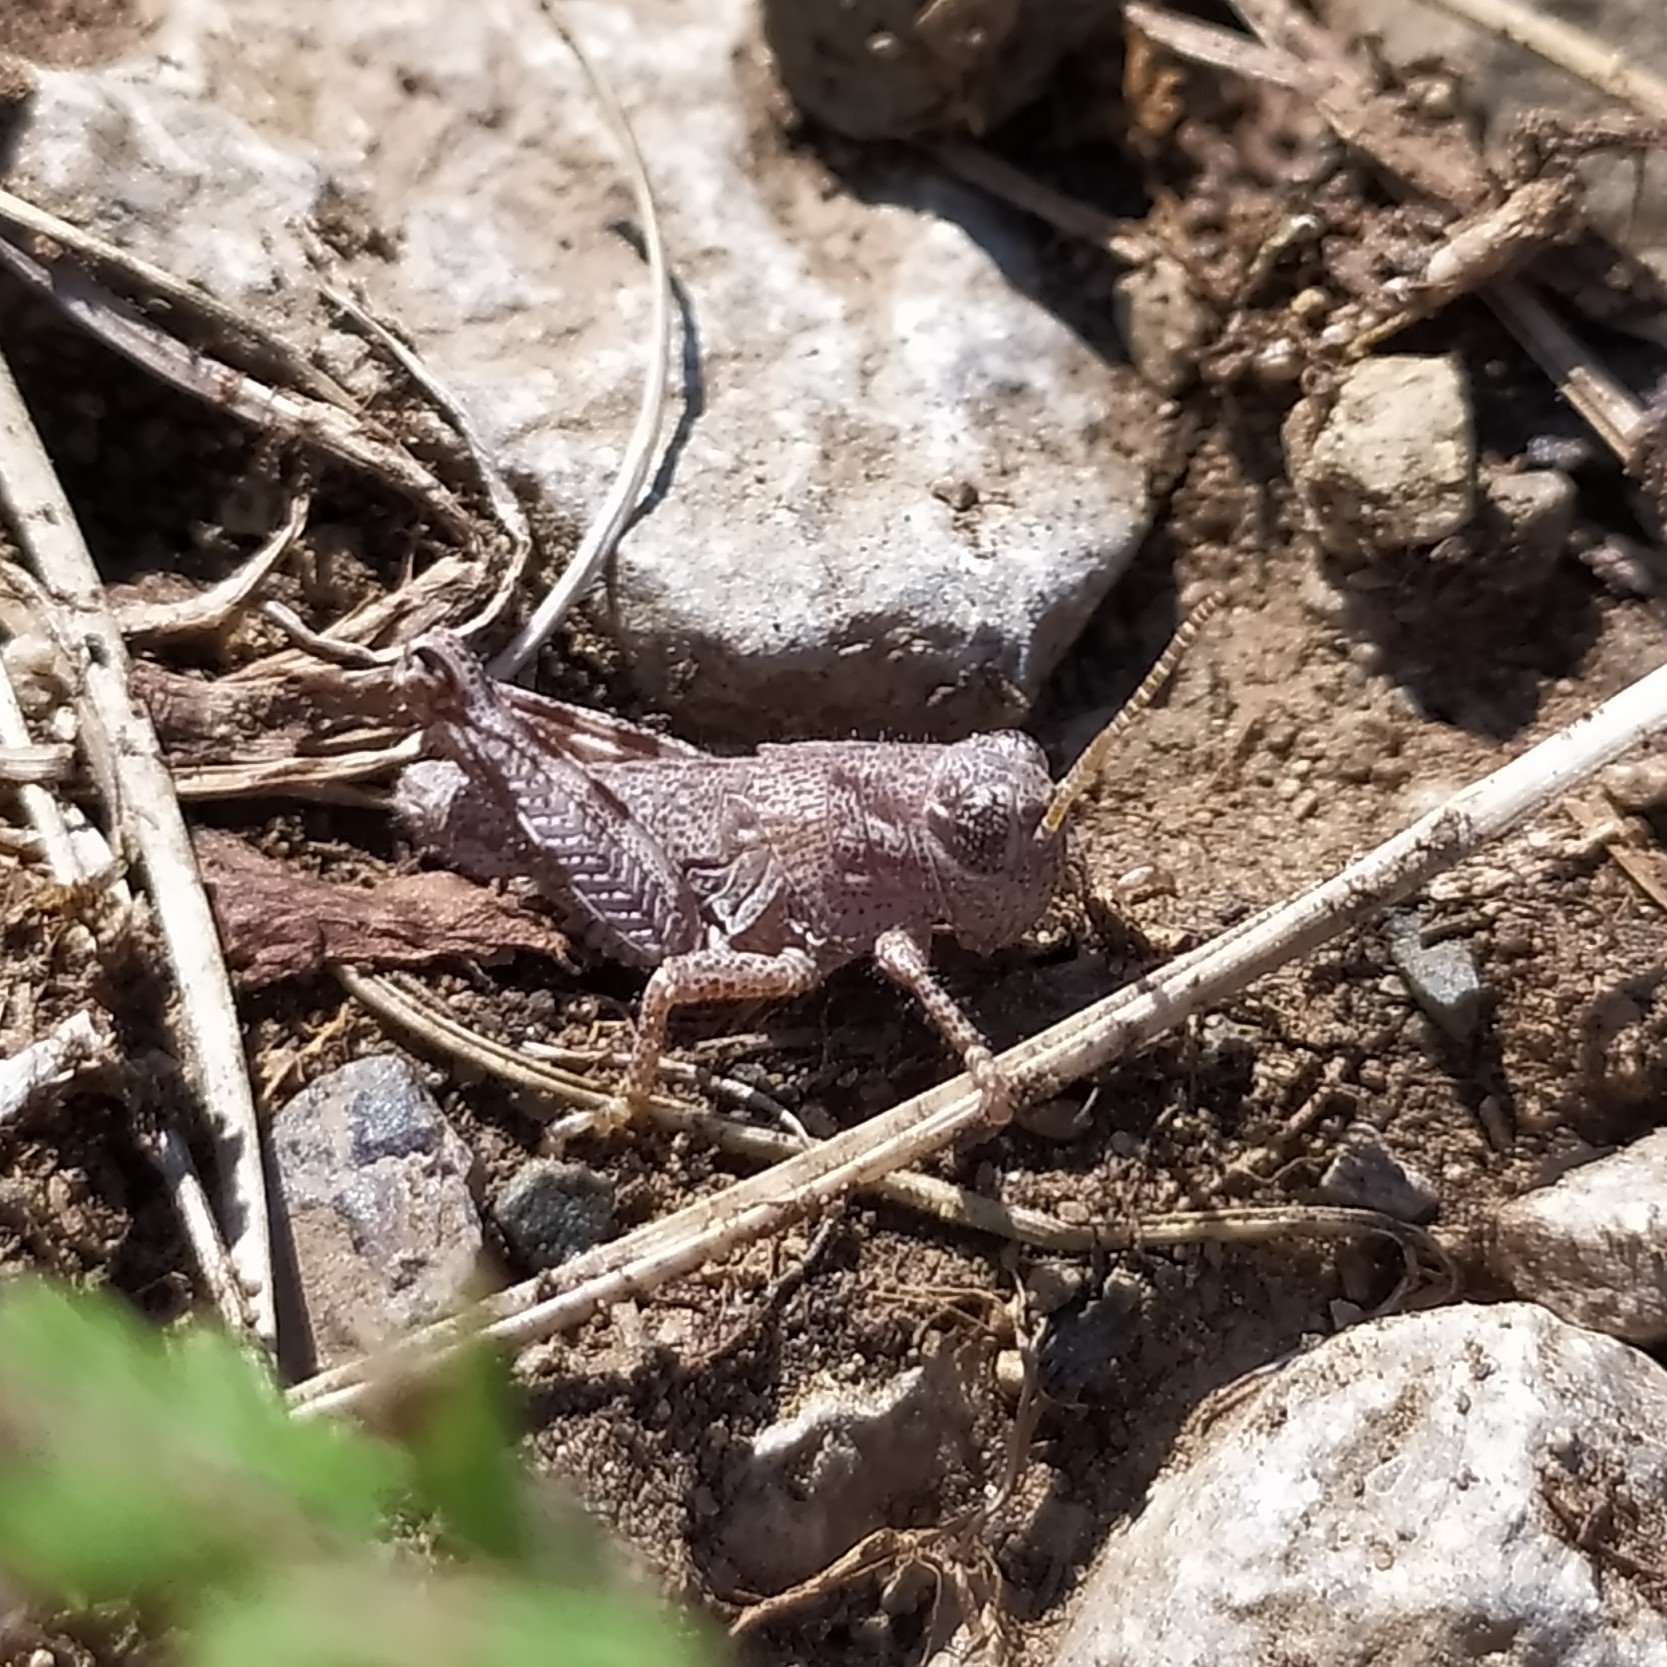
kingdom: Animalia
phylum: Arthropoda
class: Insecta
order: Orthoptera
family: Acrididae
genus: Podisma
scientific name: Podisma pedestris
